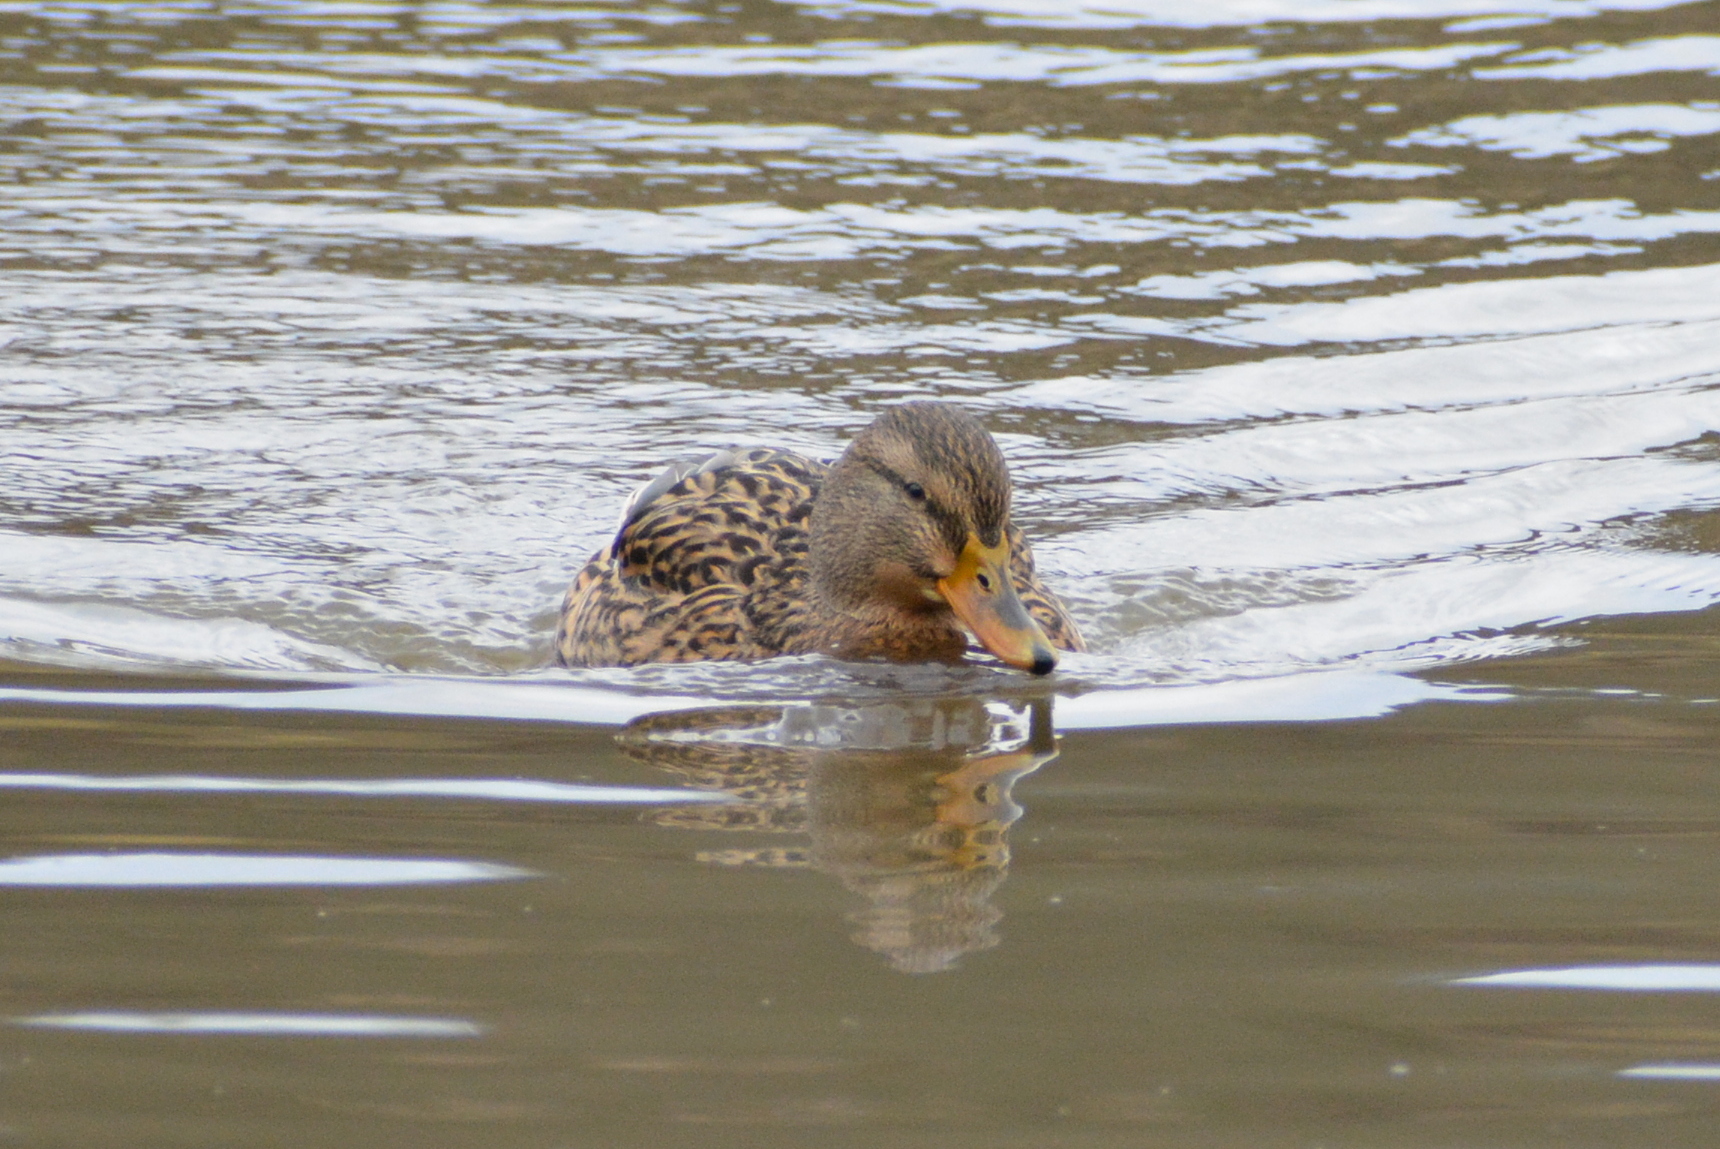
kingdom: Animalia
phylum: Chordata
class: Aves
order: Anseriformes
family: Anatidae
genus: Anas
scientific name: Anas platyrhynchos
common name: Mallard
